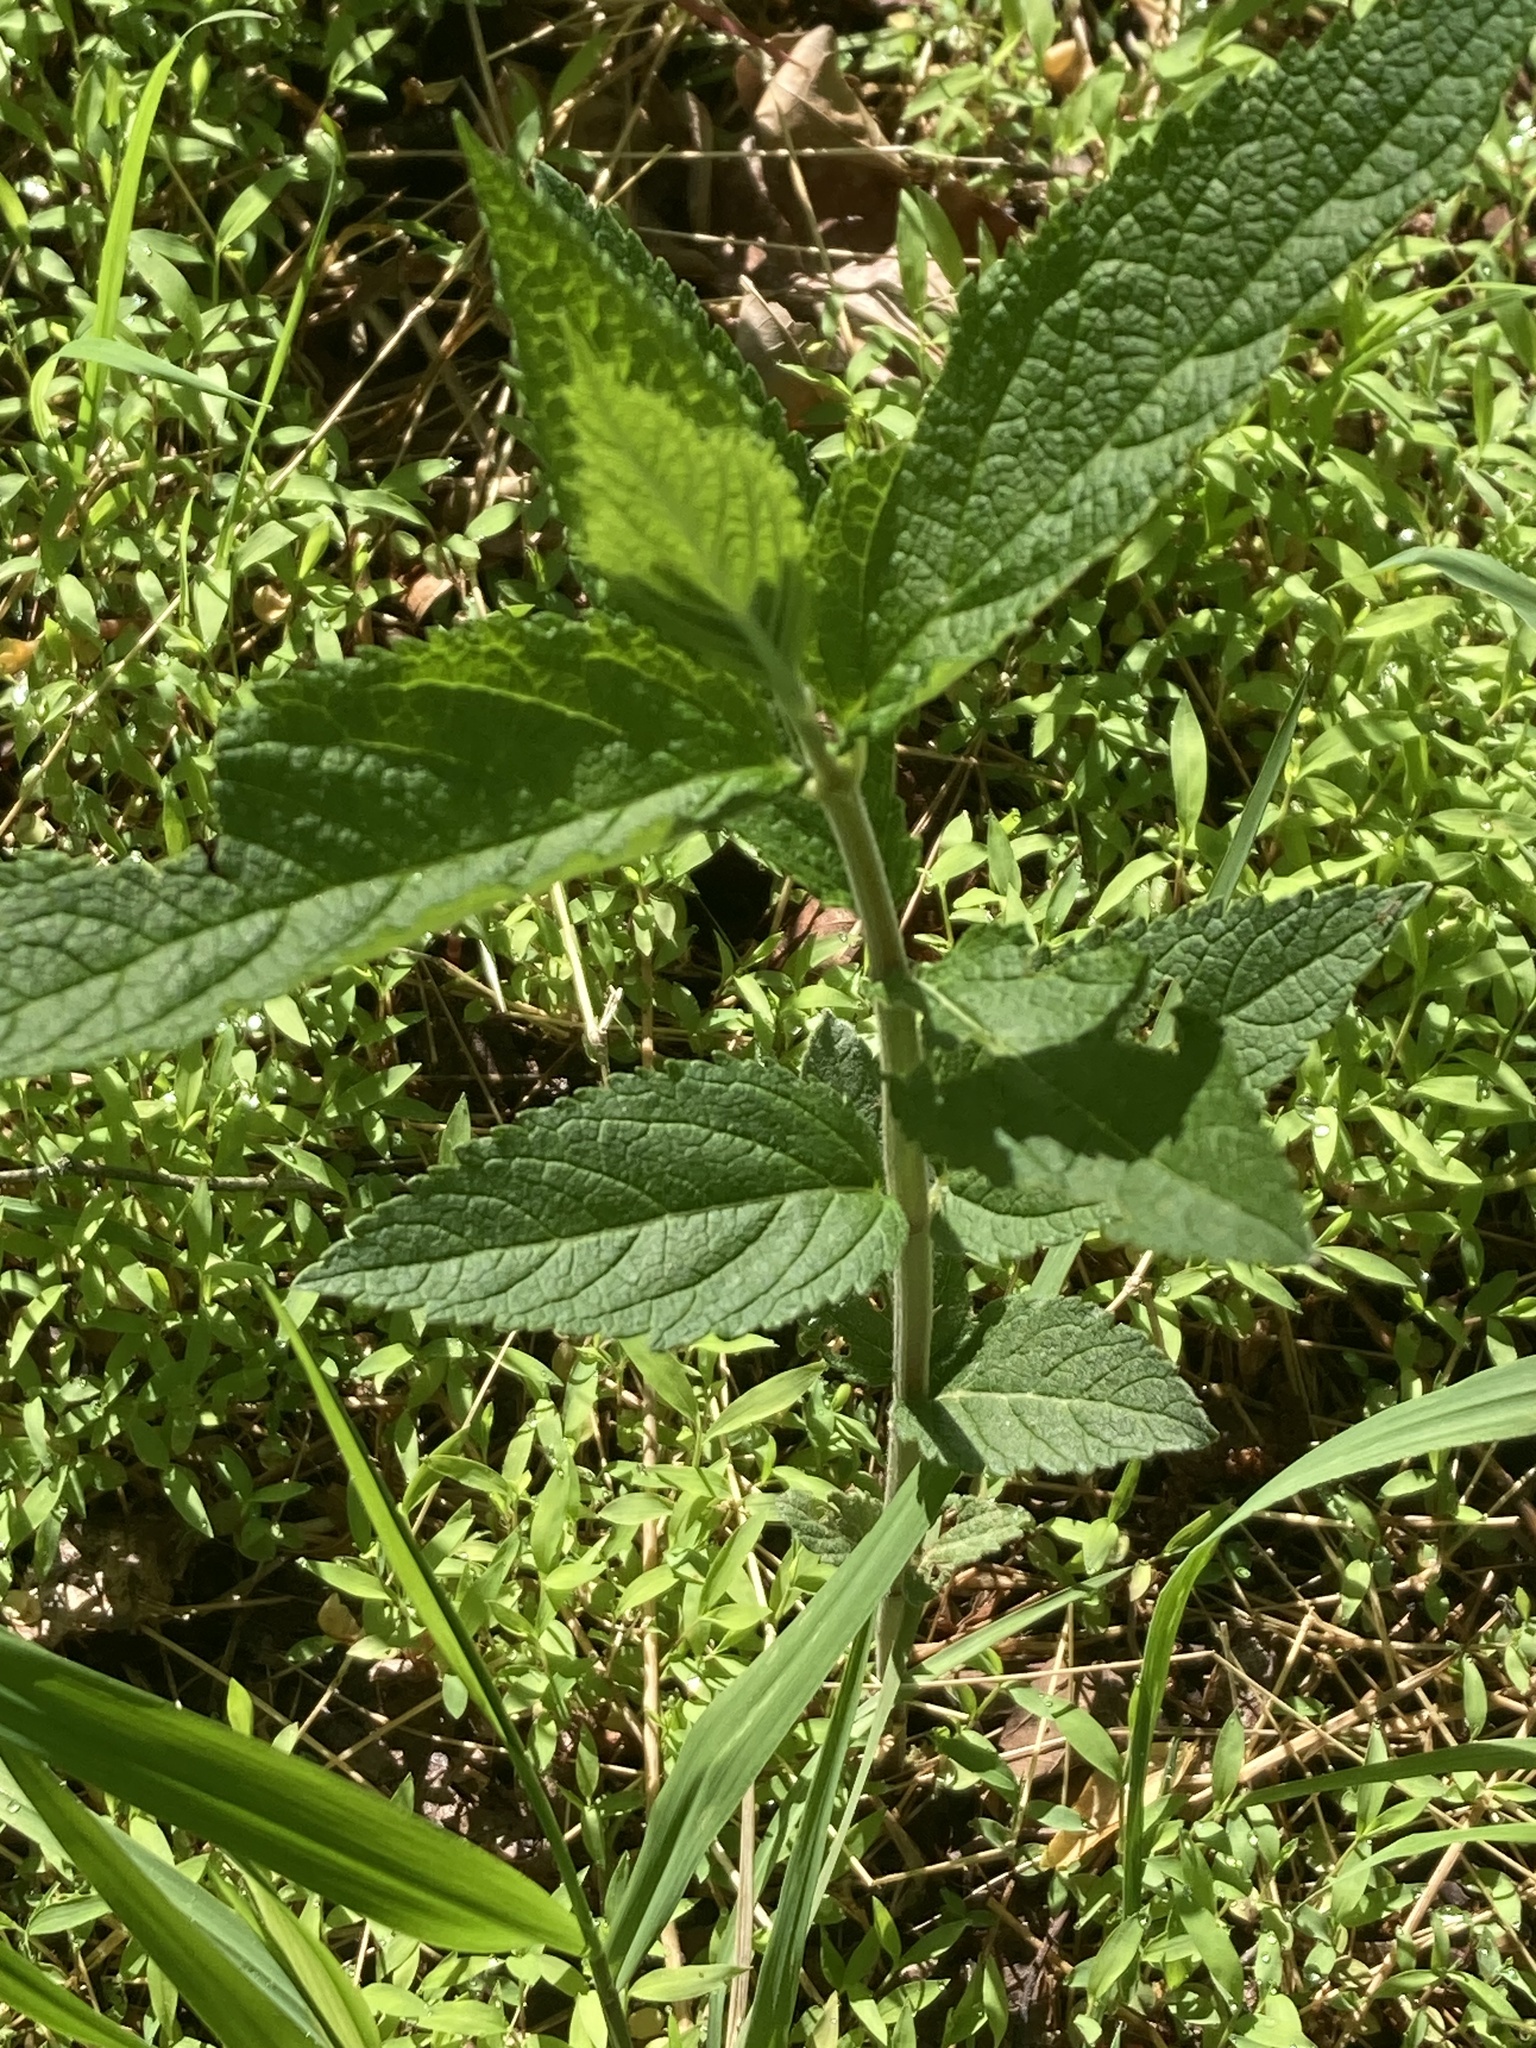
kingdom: Plantae
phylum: Tracheophyta
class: Magnoliopsida
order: Lamiales
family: Lamiaceae
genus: Teucrium
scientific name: Teucrium canadense
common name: American germander
